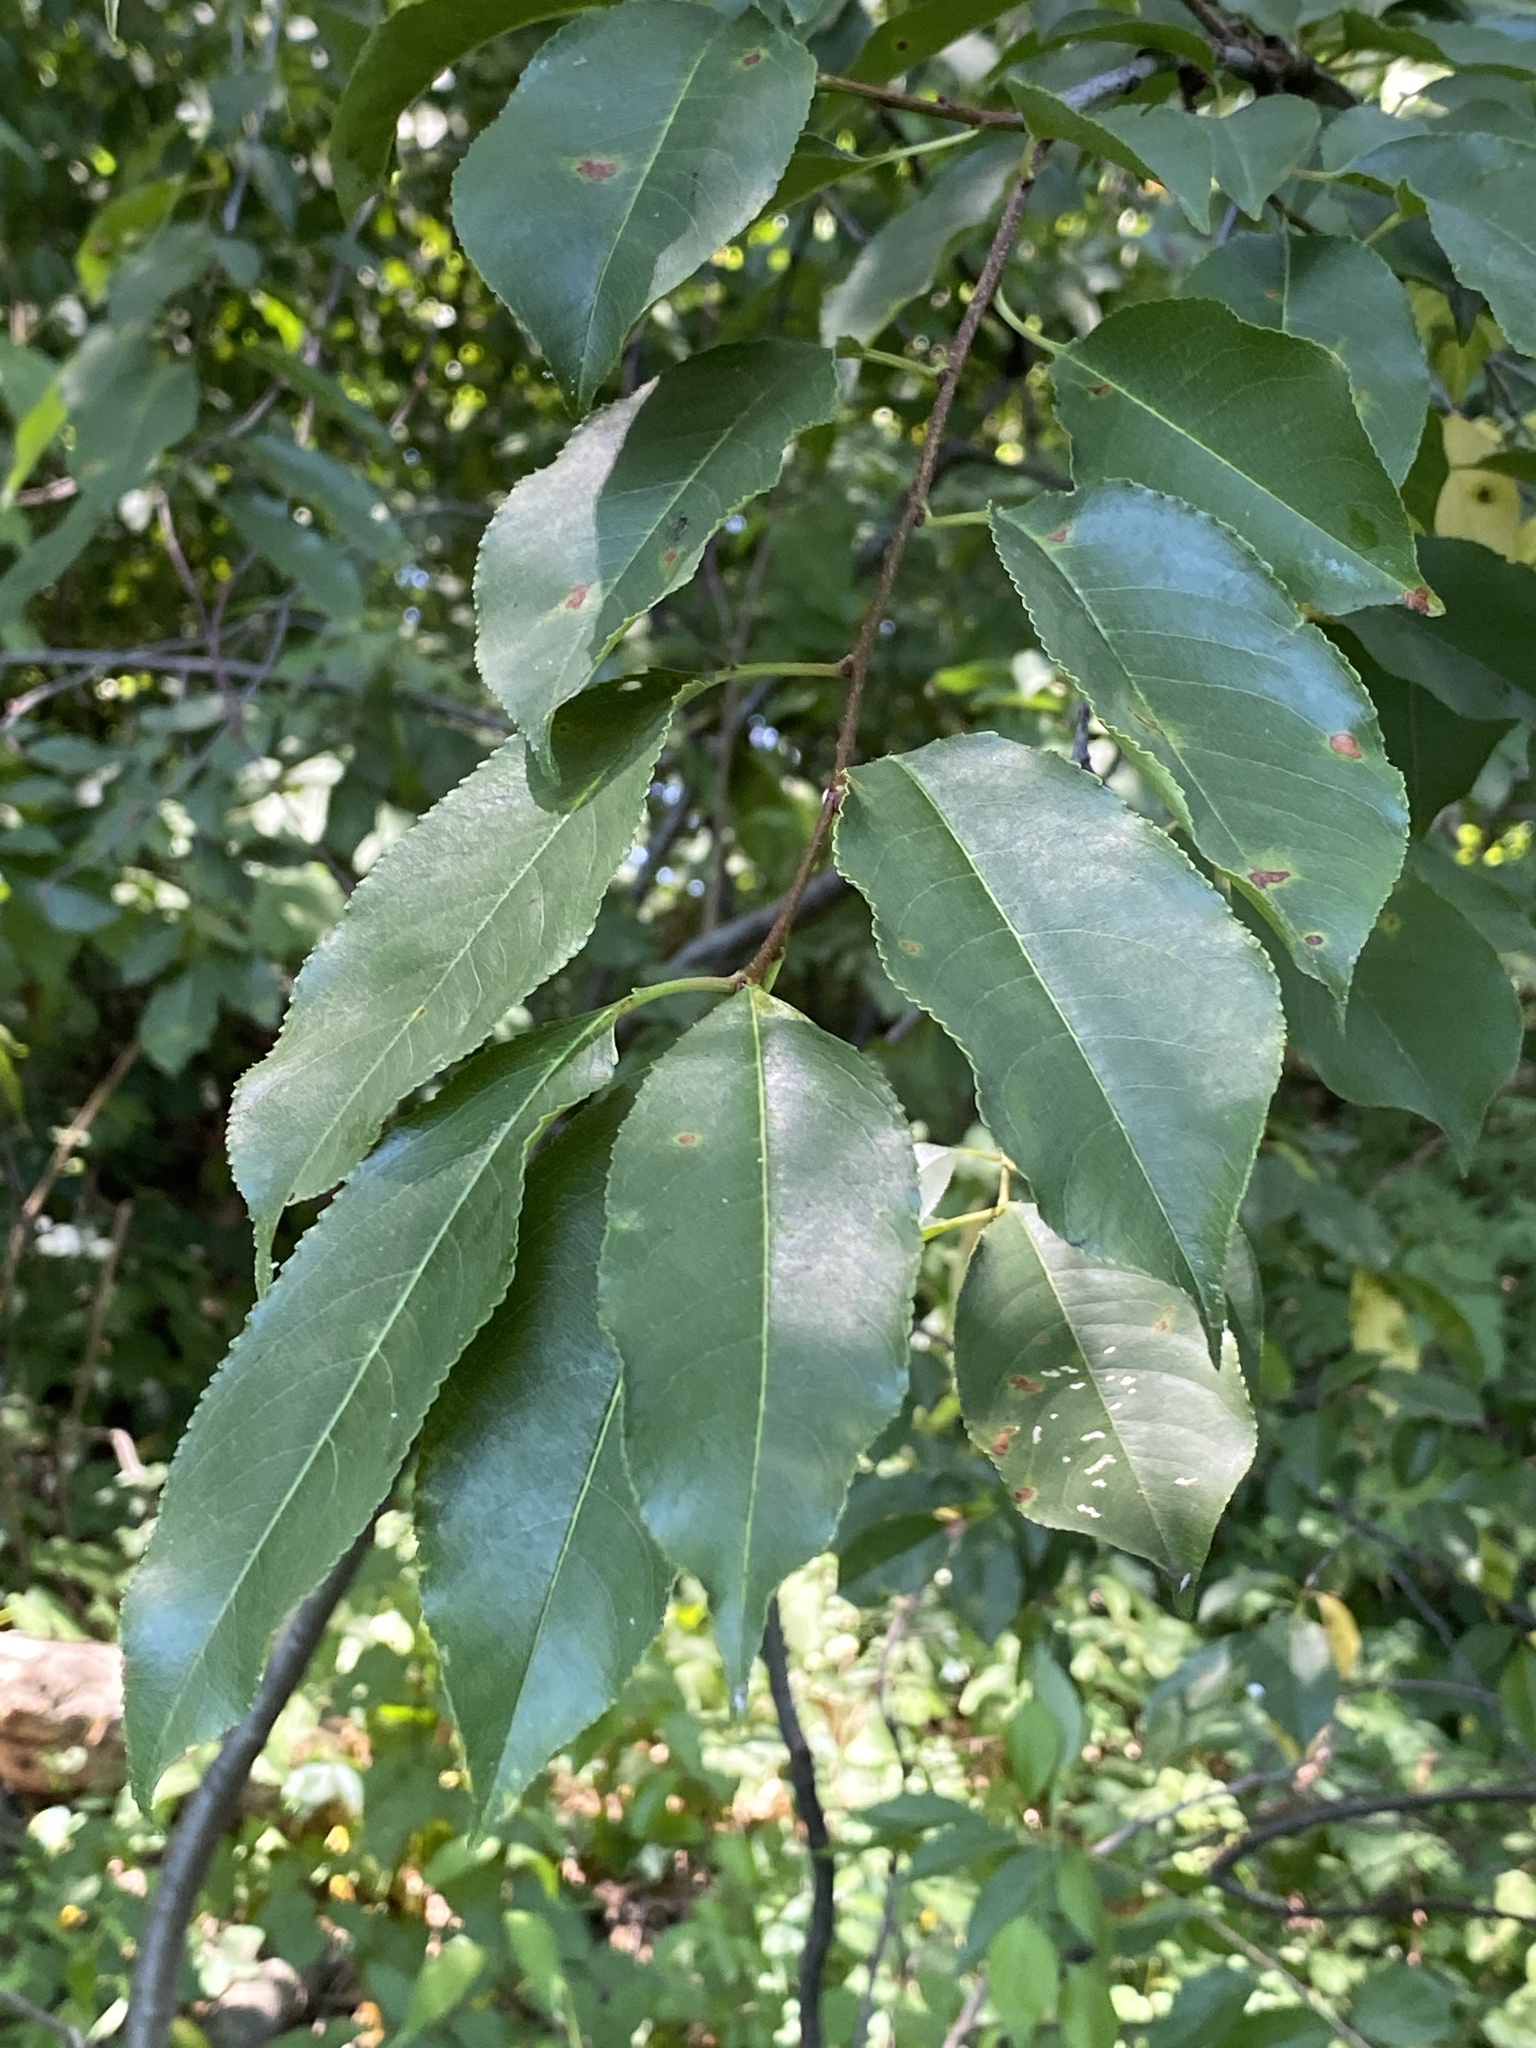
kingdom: Plantae
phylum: Tracheophyta
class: Magnoliopsida
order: Rosales
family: Rosaceae
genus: Prunus
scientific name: Prunus serotina
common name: Black cherry
